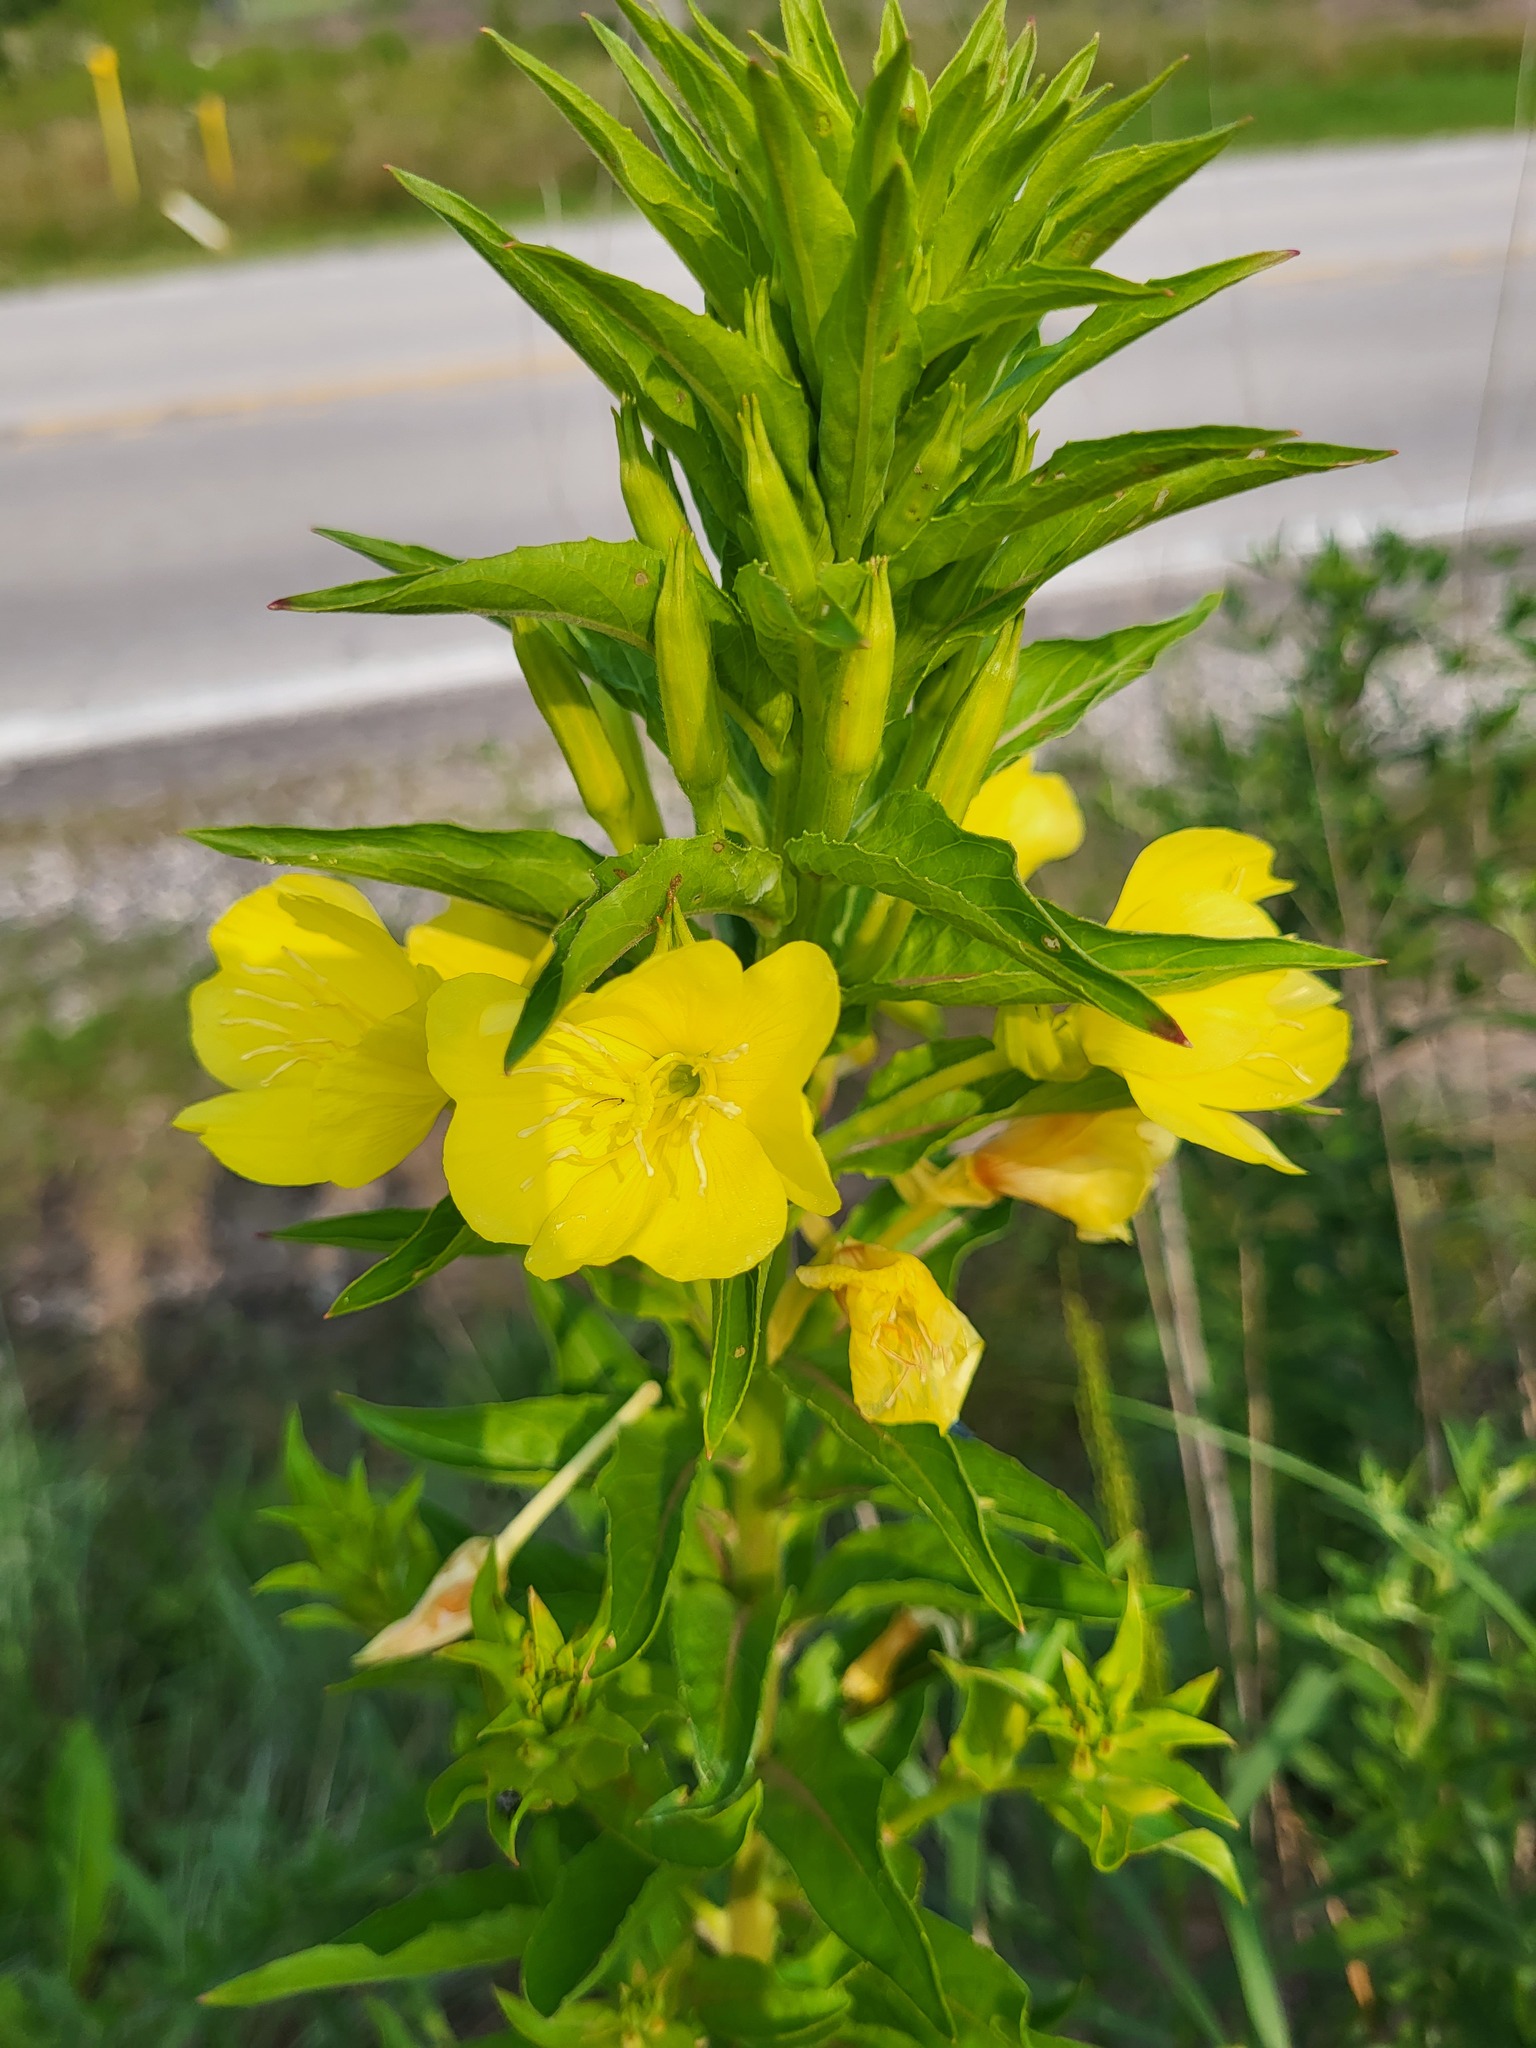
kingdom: Plantae
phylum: Tracheophyta
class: Magnoliopsida
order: Myrtales
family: Onagraceae
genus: Oenothera
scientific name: Oenothera biennis
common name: Common evening-primrose
